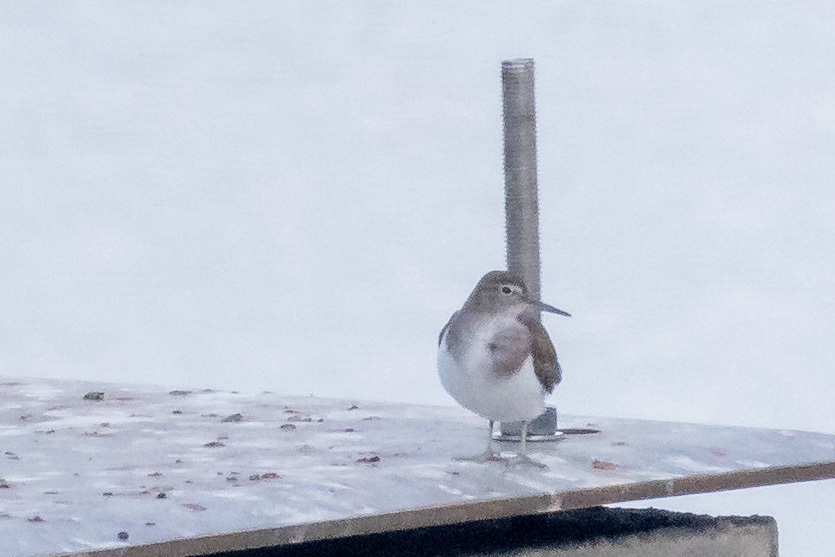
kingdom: Animalia
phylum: Chordata
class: Aves
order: Charadriiformes
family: Scolopacidae
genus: Actitis
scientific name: Actitis hypoleucos
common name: Common sandpiper
